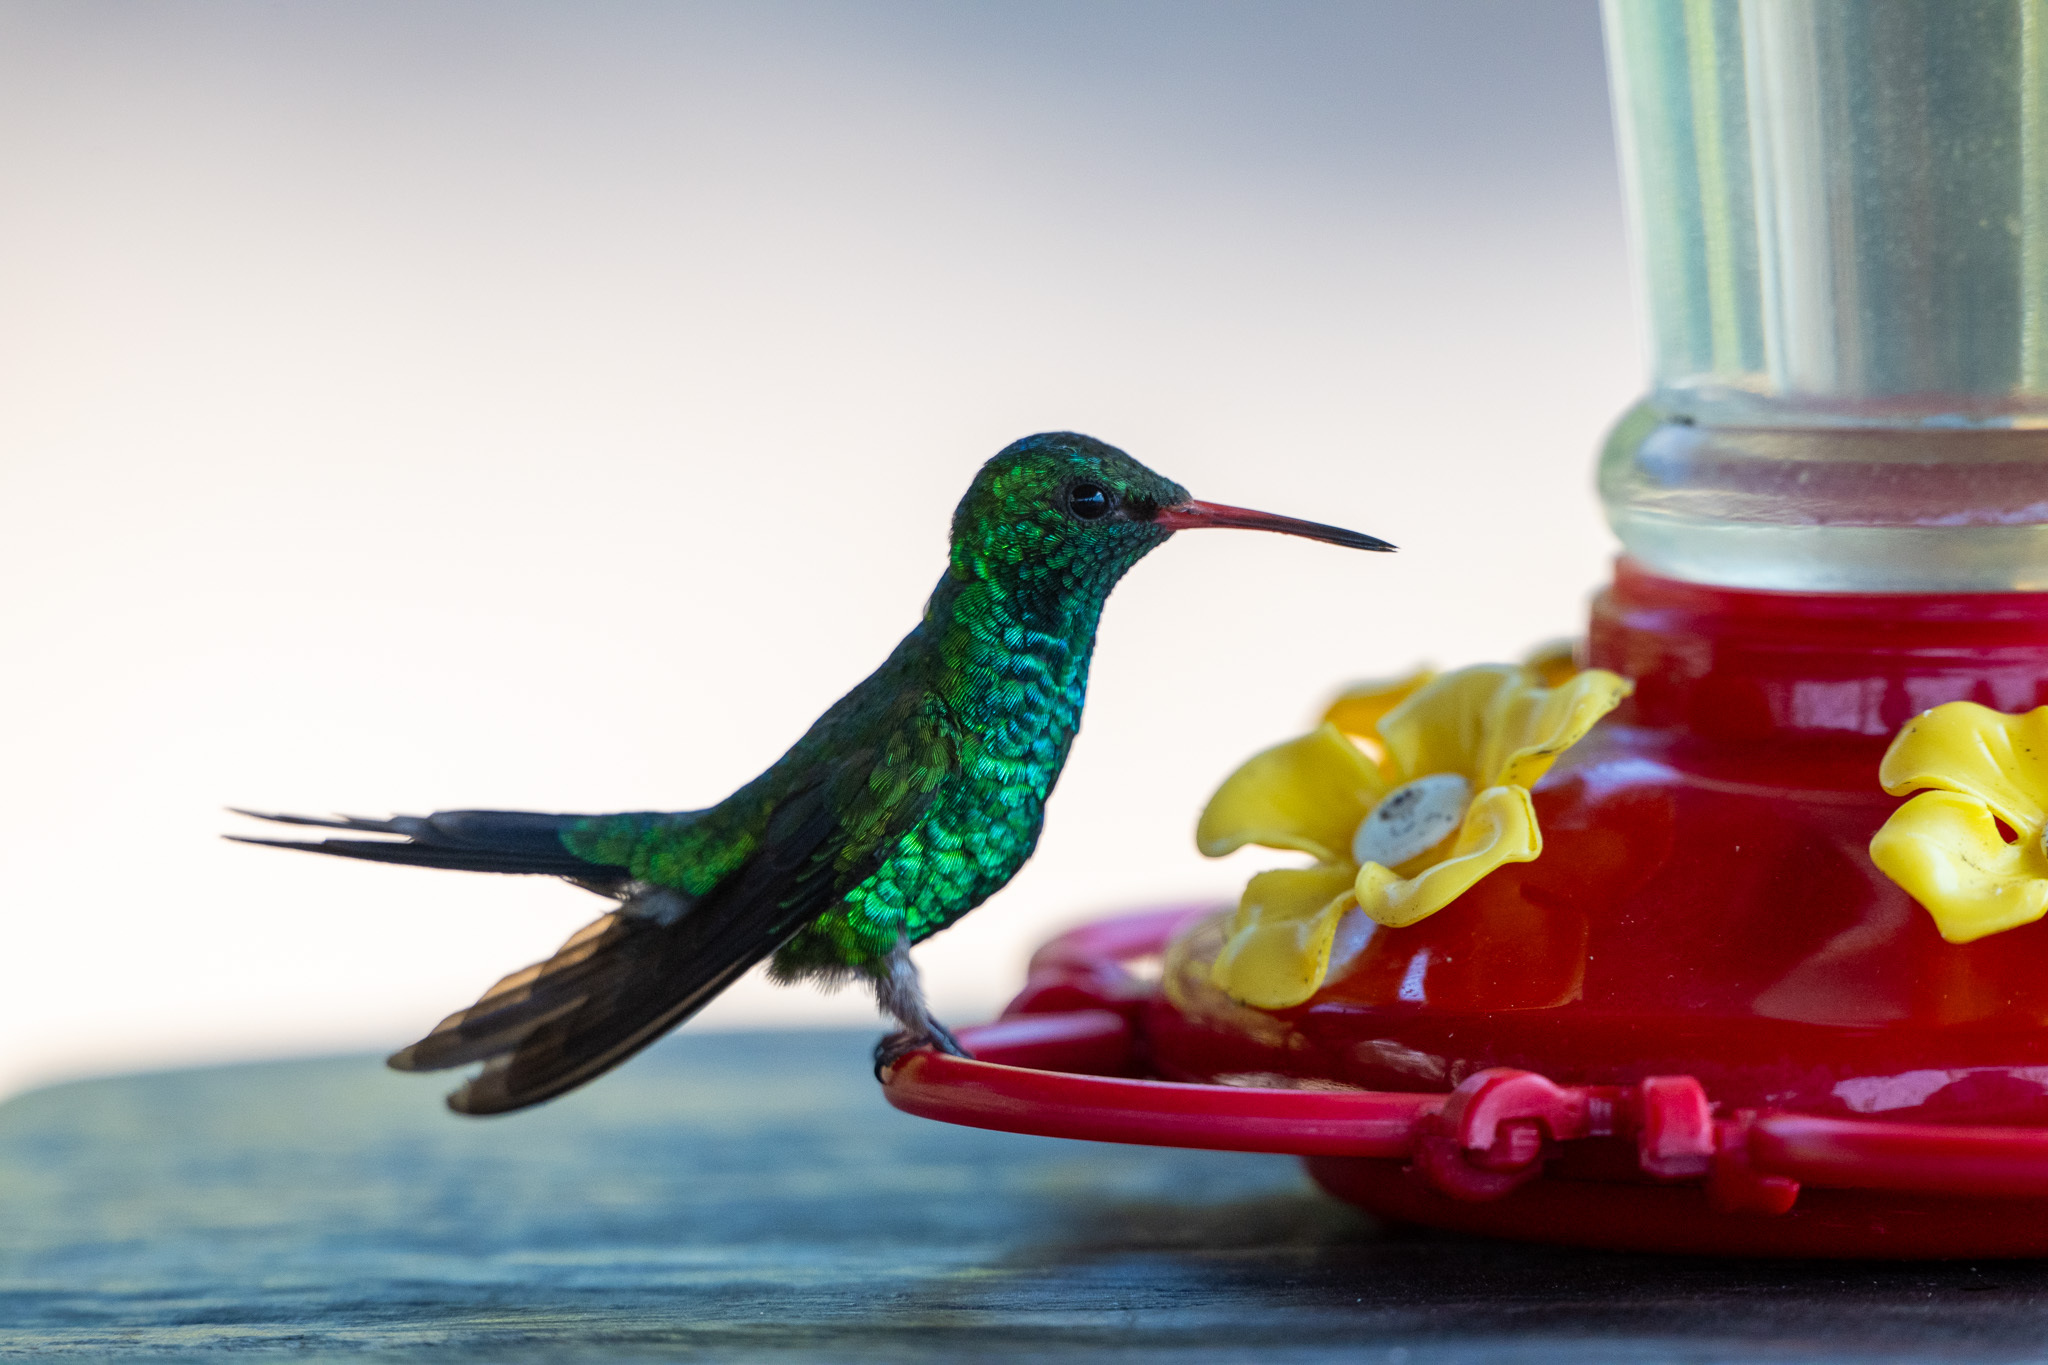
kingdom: Animalia
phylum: Chordata
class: Aves
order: Apodiformes
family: Trochilidae
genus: Cynanthus
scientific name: Cynanthus canivetii
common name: Canivet's emerald
